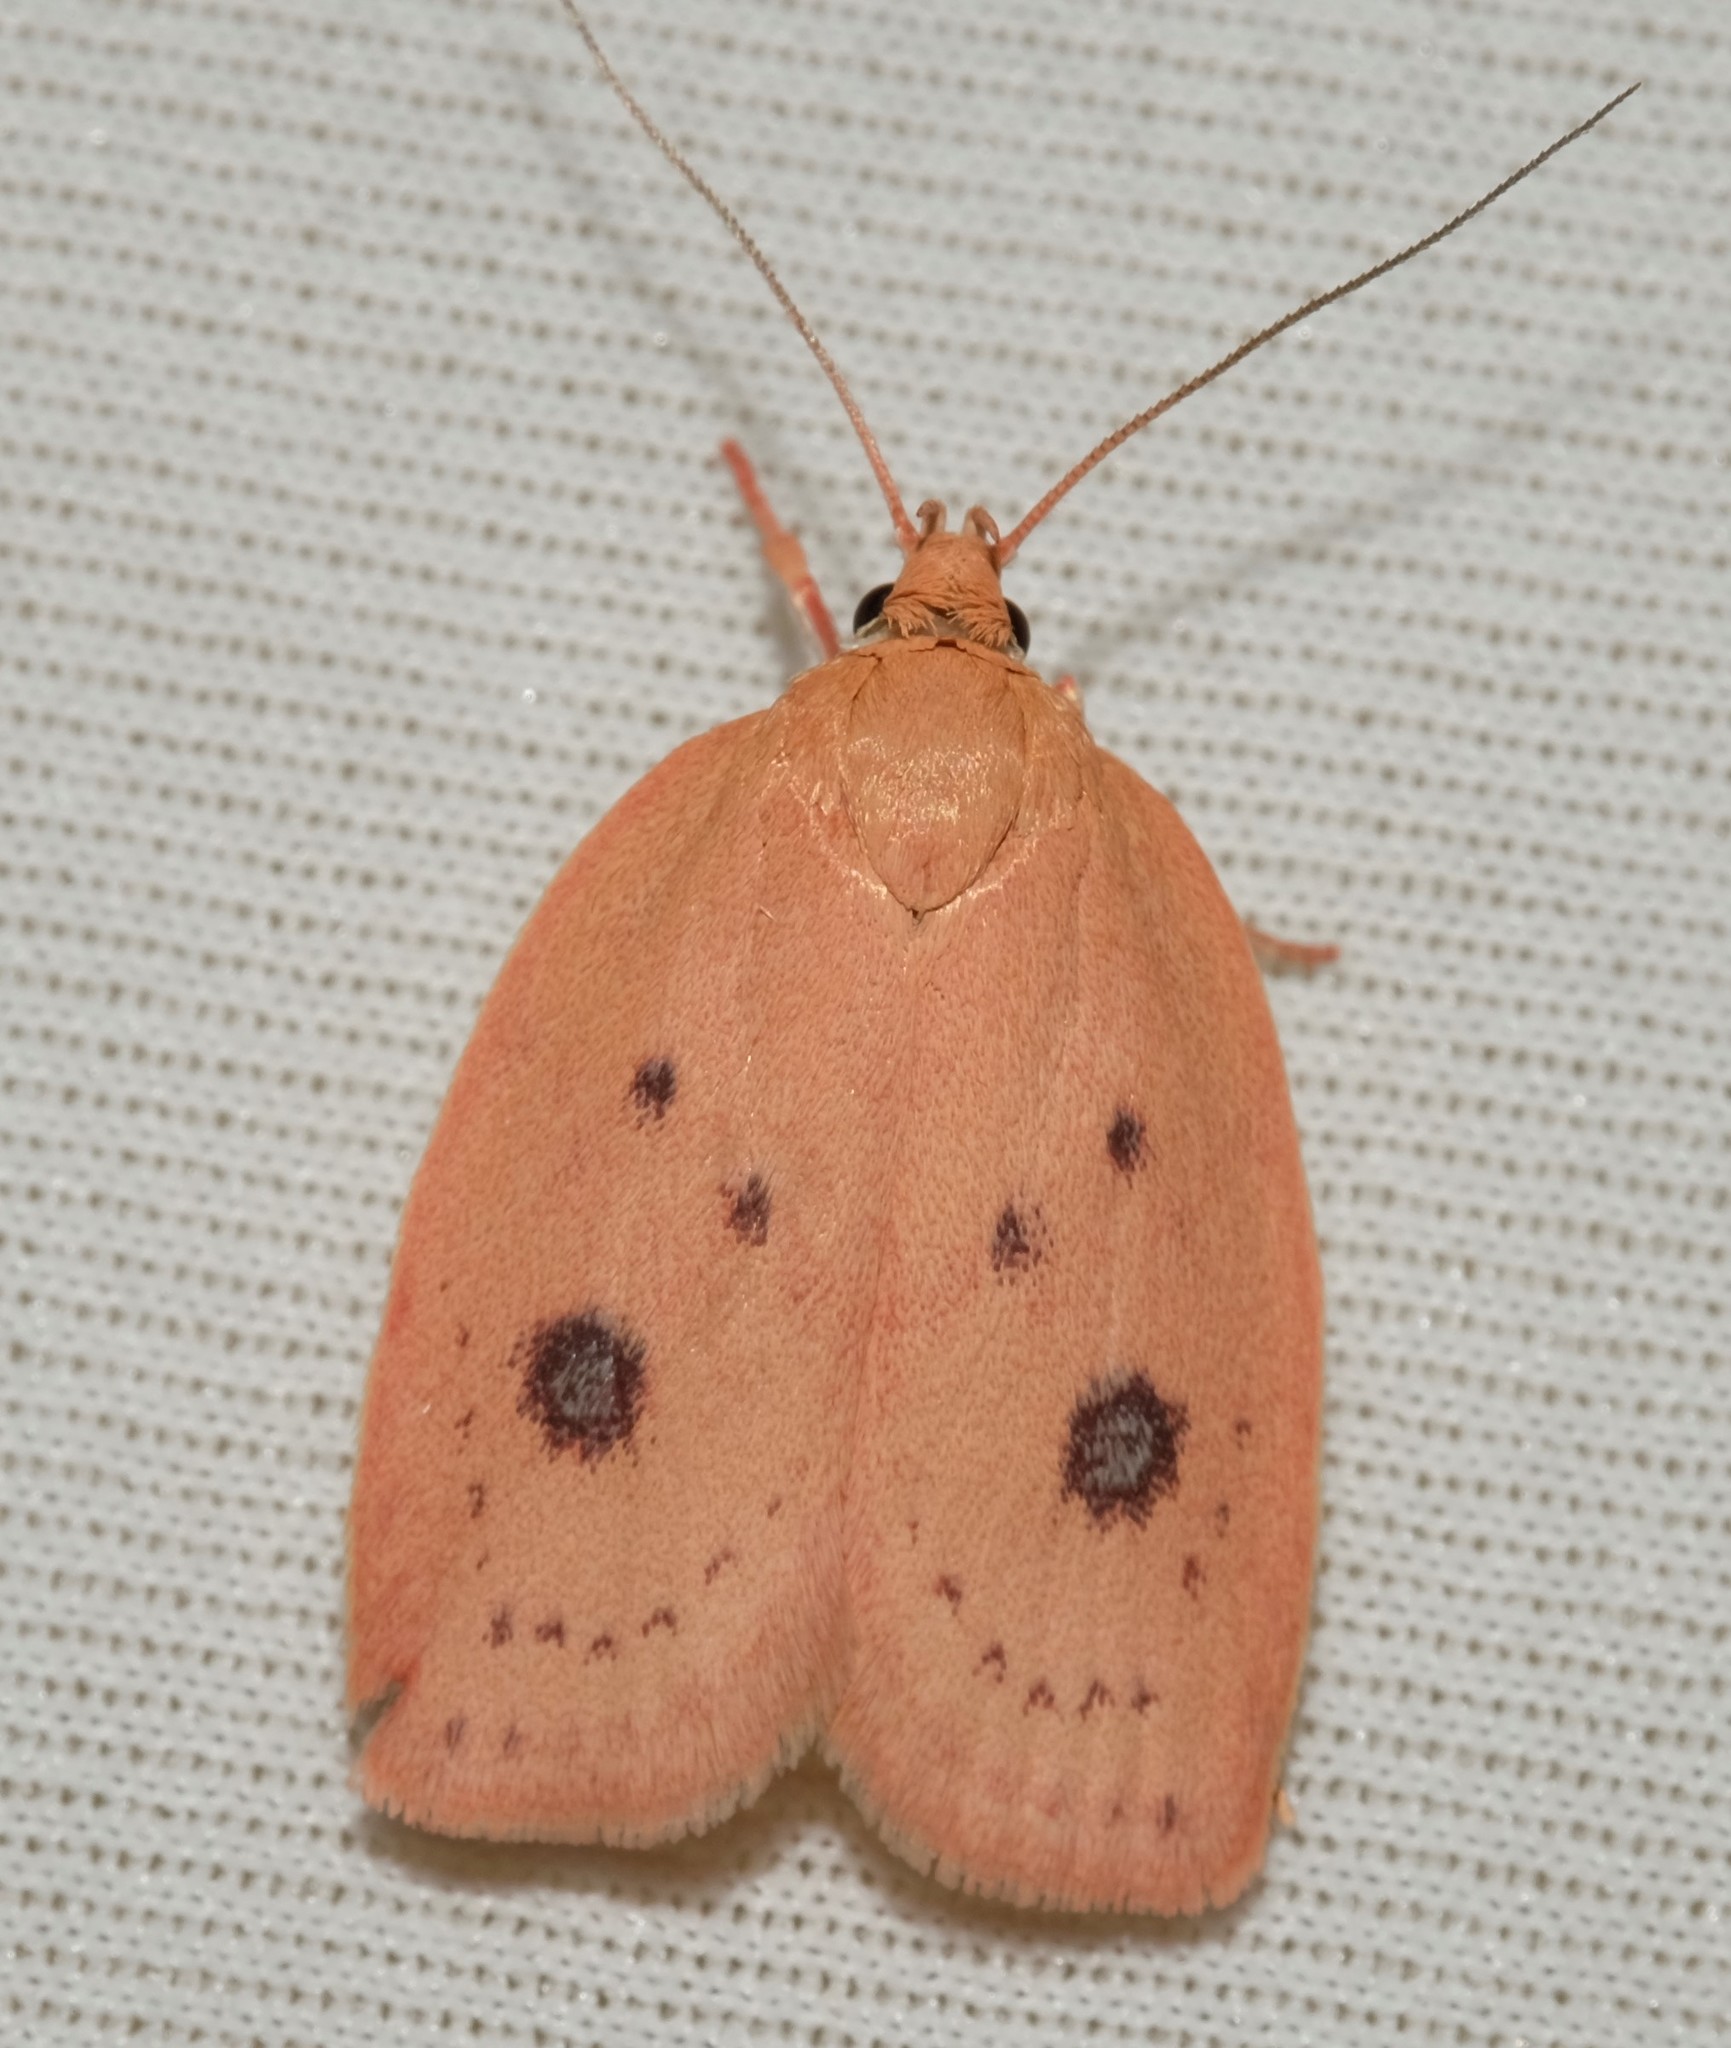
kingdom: Animalia
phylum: Arthropoda
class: Insecta
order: Lepidoptera
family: Oecophoridae
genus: Garrha
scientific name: Garrha pudica
